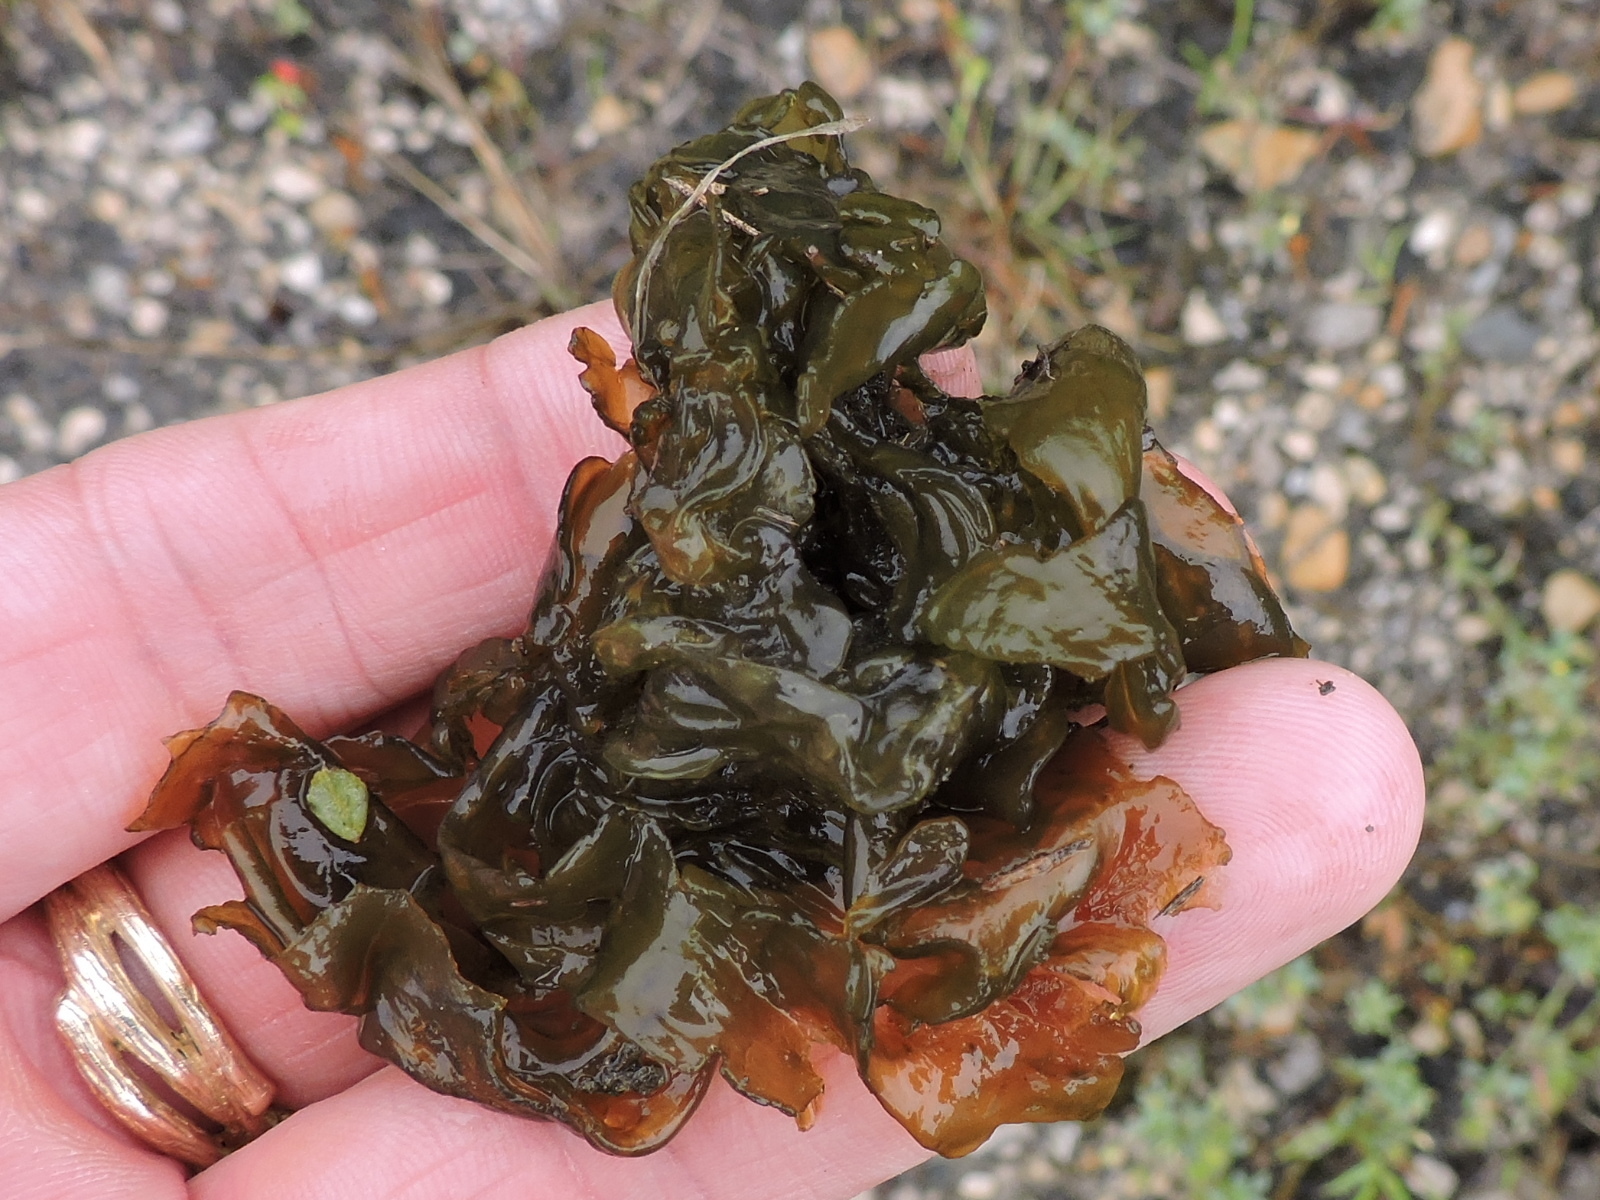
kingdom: Bacteria
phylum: Cyanobacteria
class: Cyanobacteriia
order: Cyanobacteriales
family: Nostocaceae
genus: Nostoc
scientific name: Nostoc commune
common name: Star jelly
